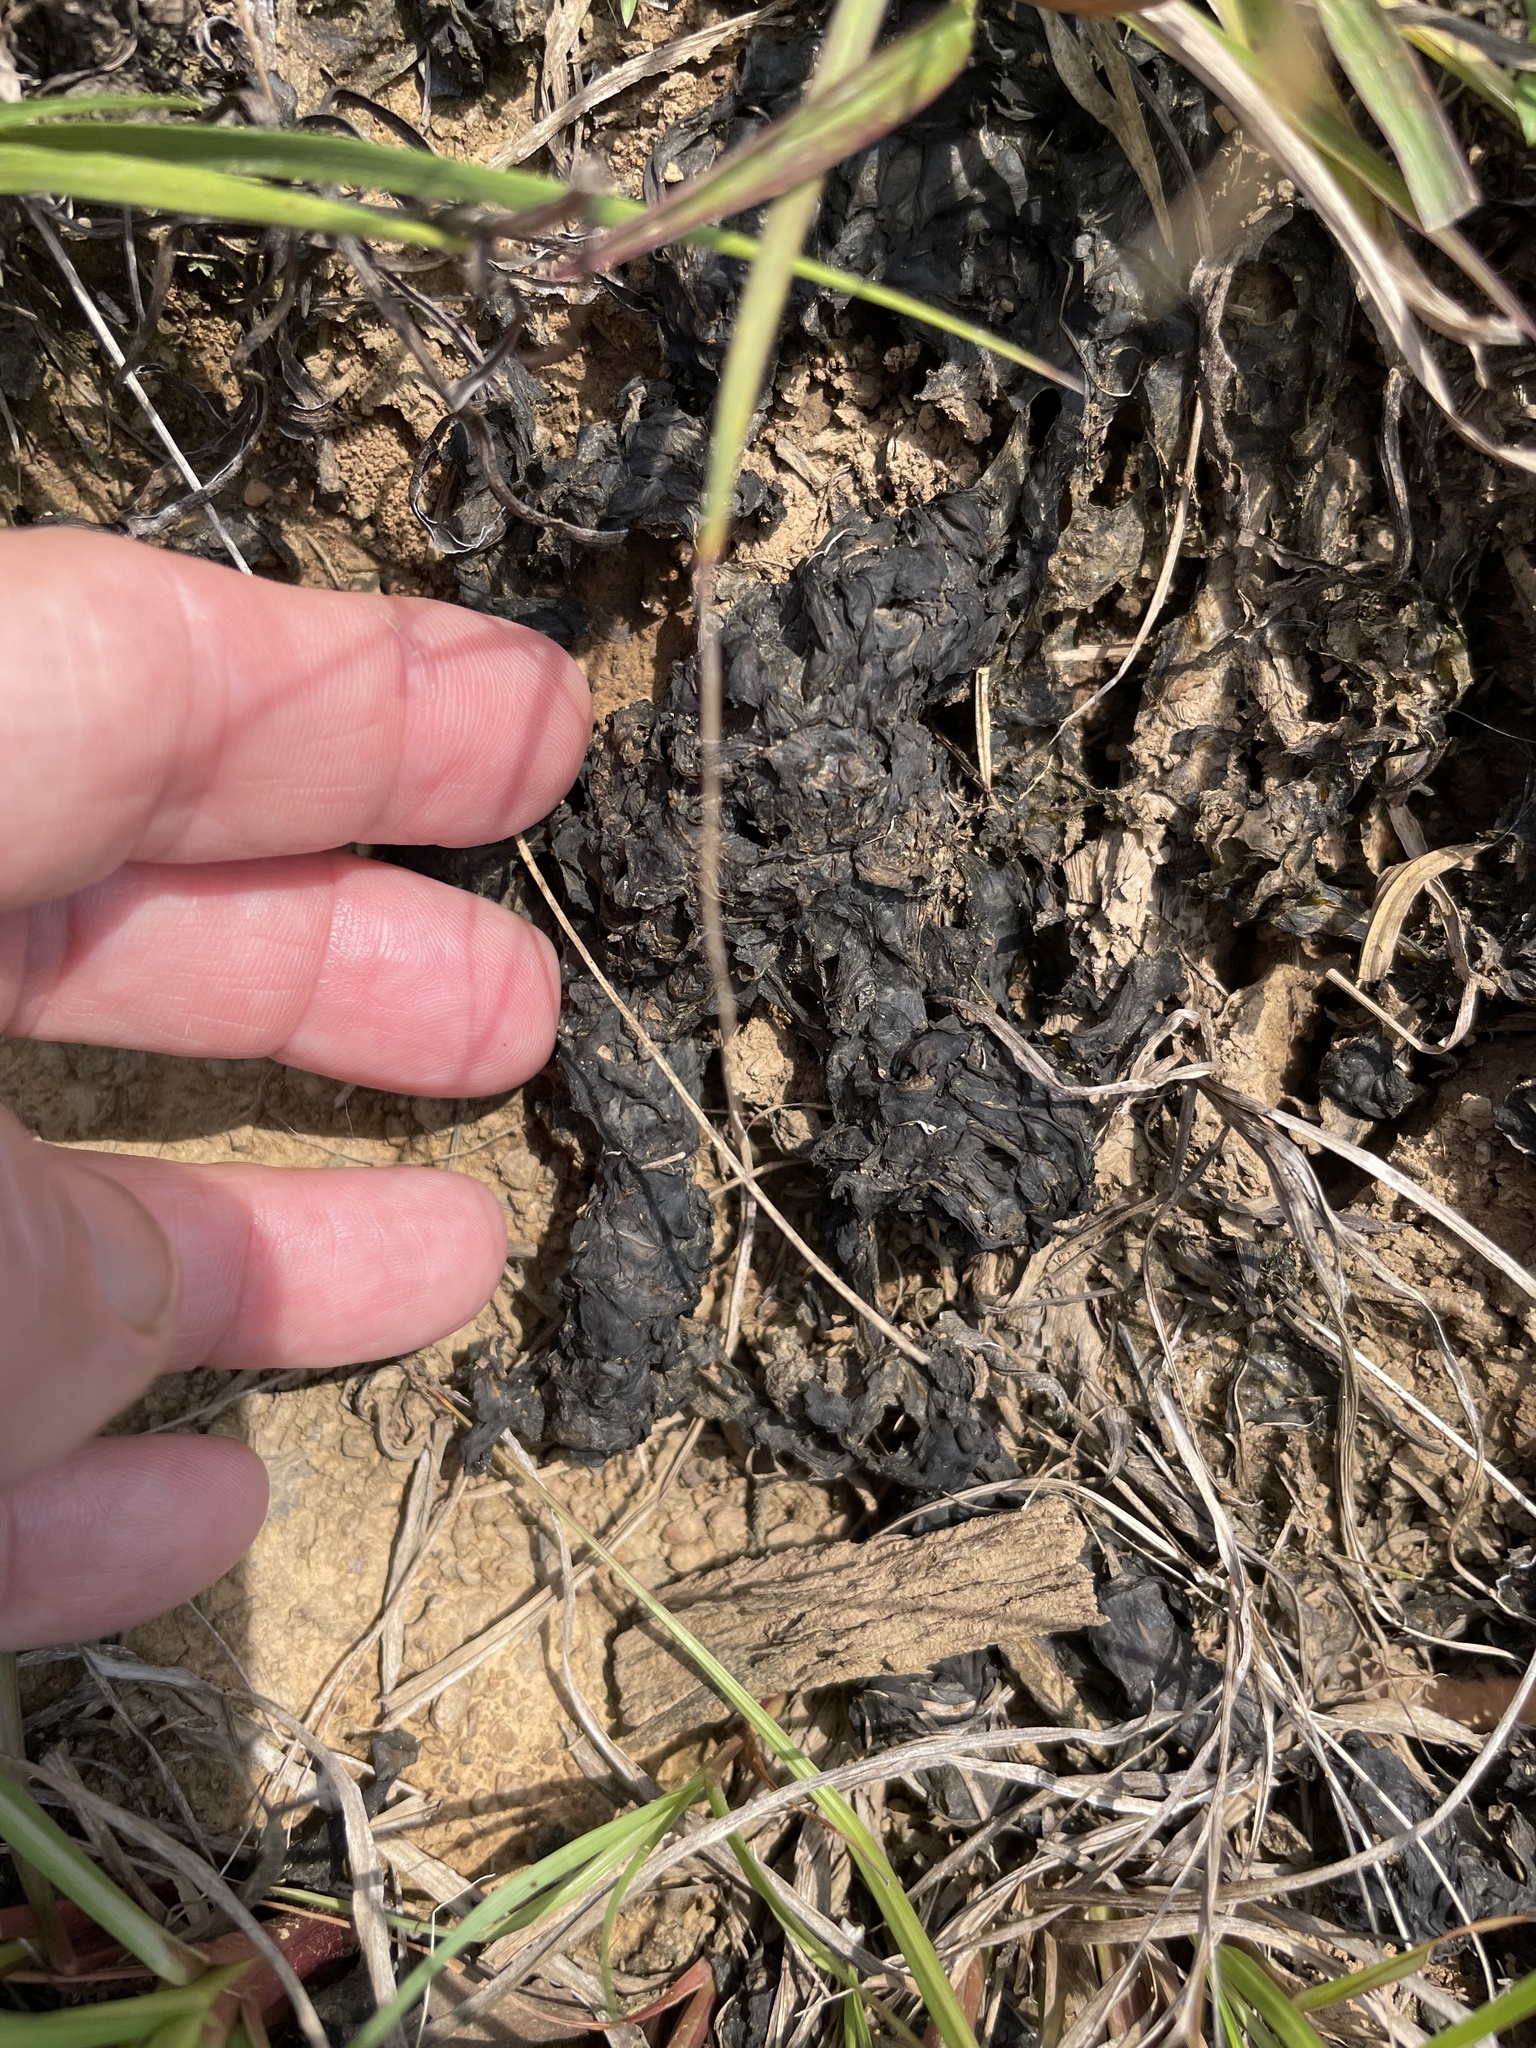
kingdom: Bacteria
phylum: Cyanobacteria
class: Cyanobacteriia
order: Cyanobacteriales
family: Nostocaceae
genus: Nostoc
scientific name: Nostoc commune
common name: Star jelly
